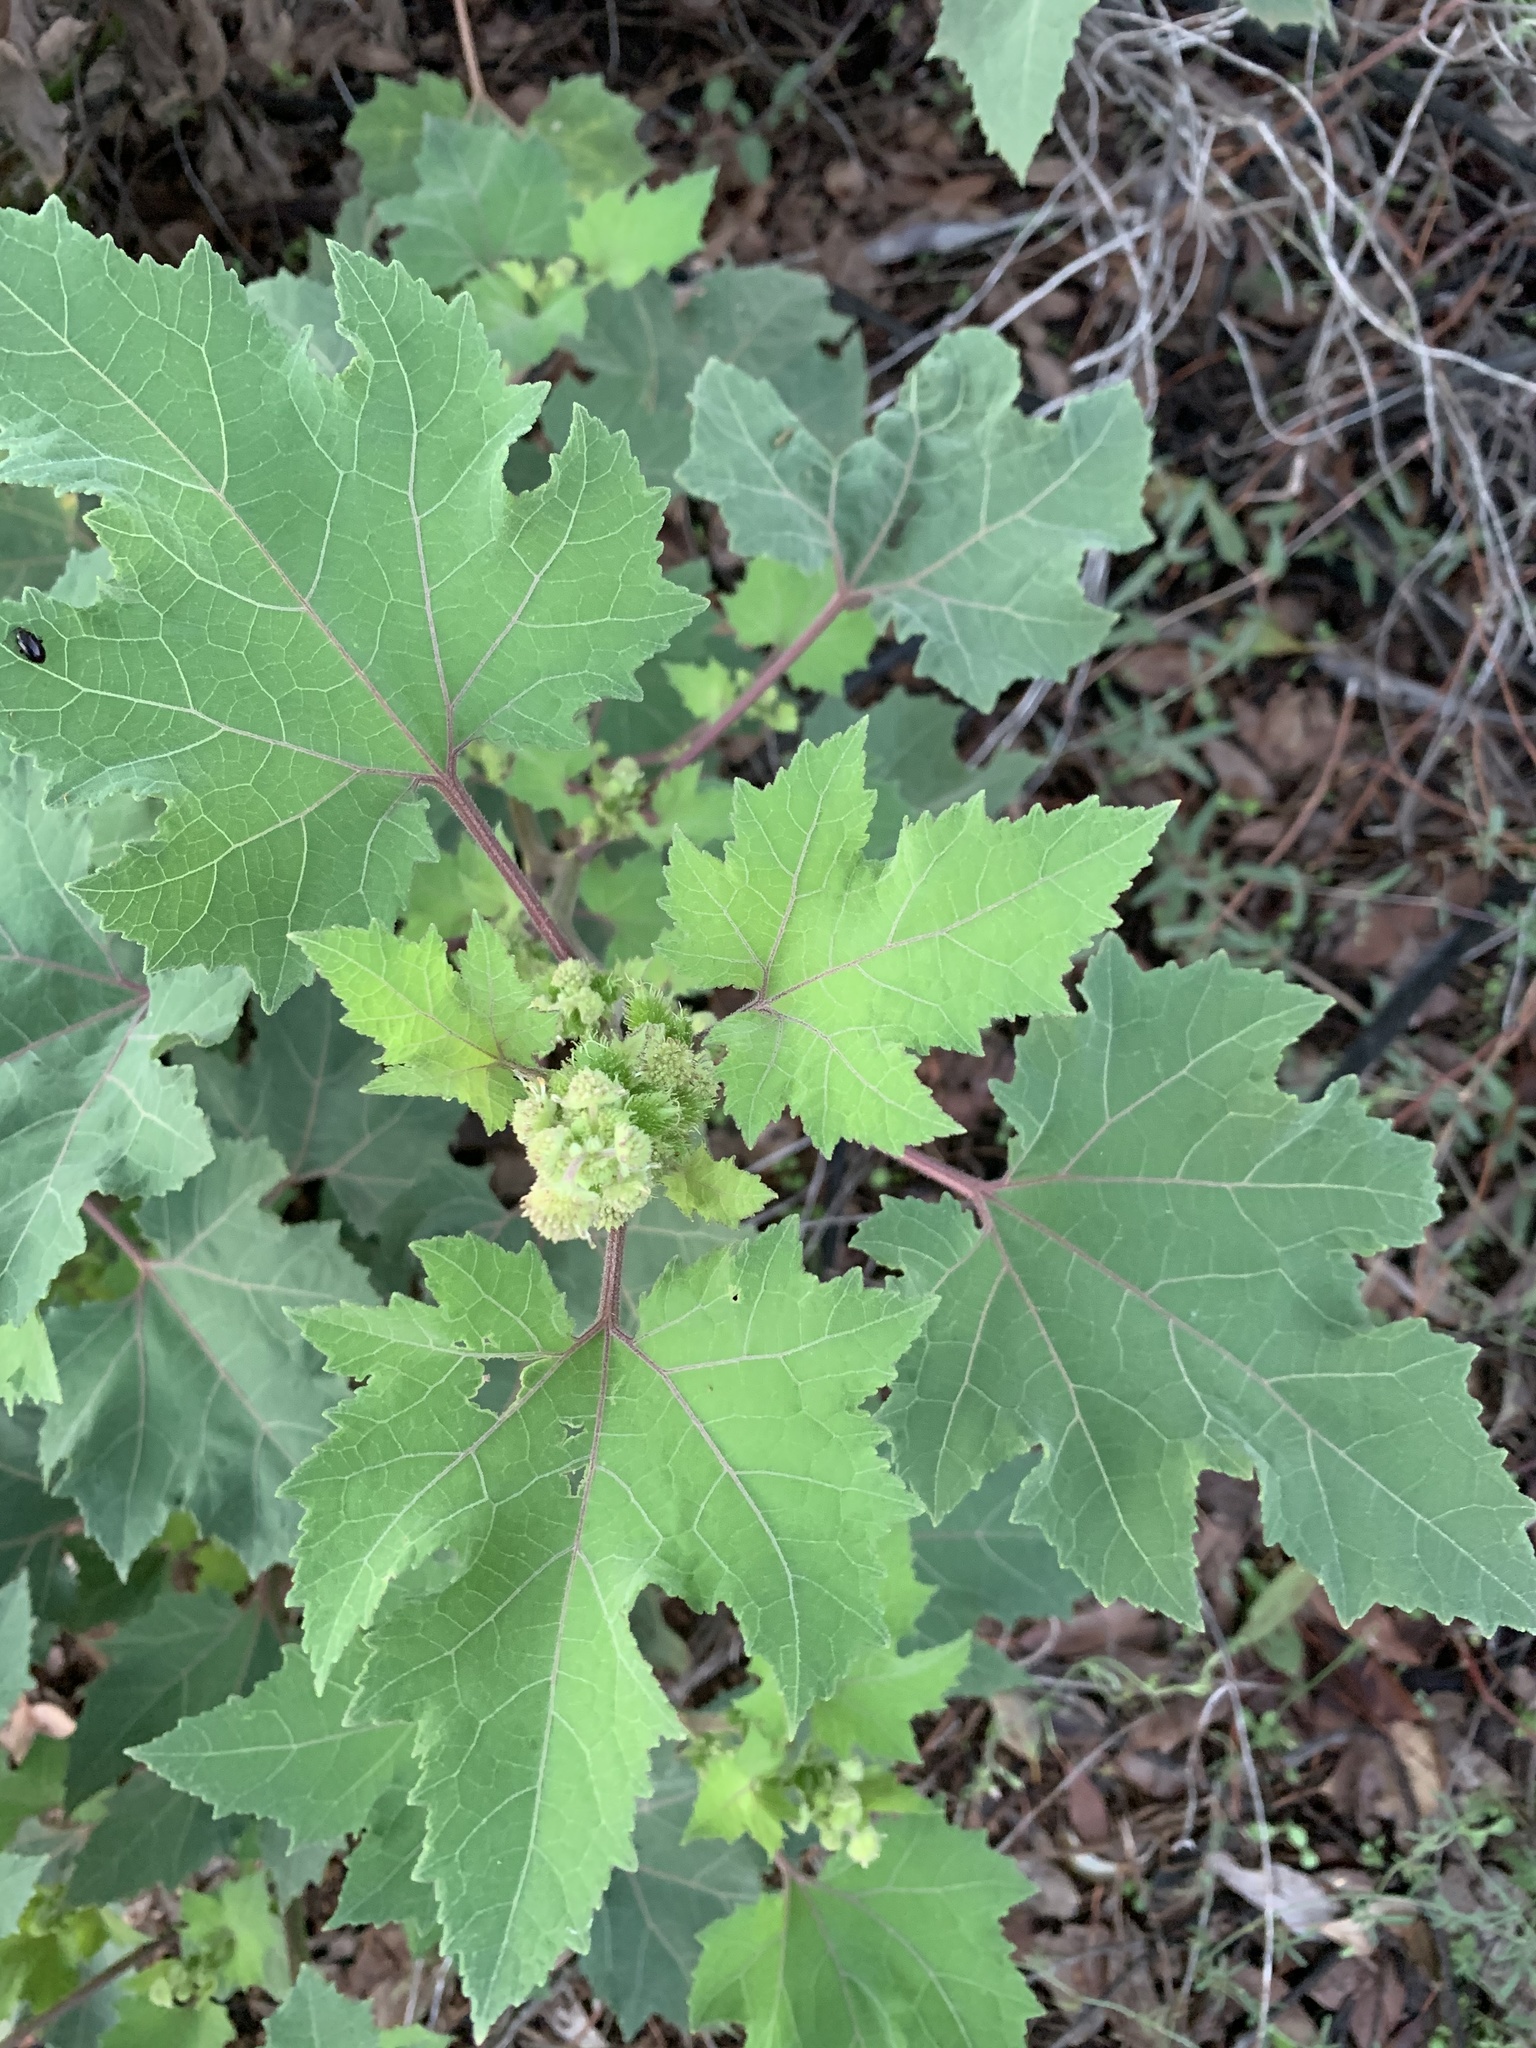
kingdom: Plantae
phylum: Tracheophyta
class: Magnoliopsida
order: Asterales
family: Asteraceae
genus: Xanthium
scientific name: Xanthium strumarium
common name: Rough cocklebur
